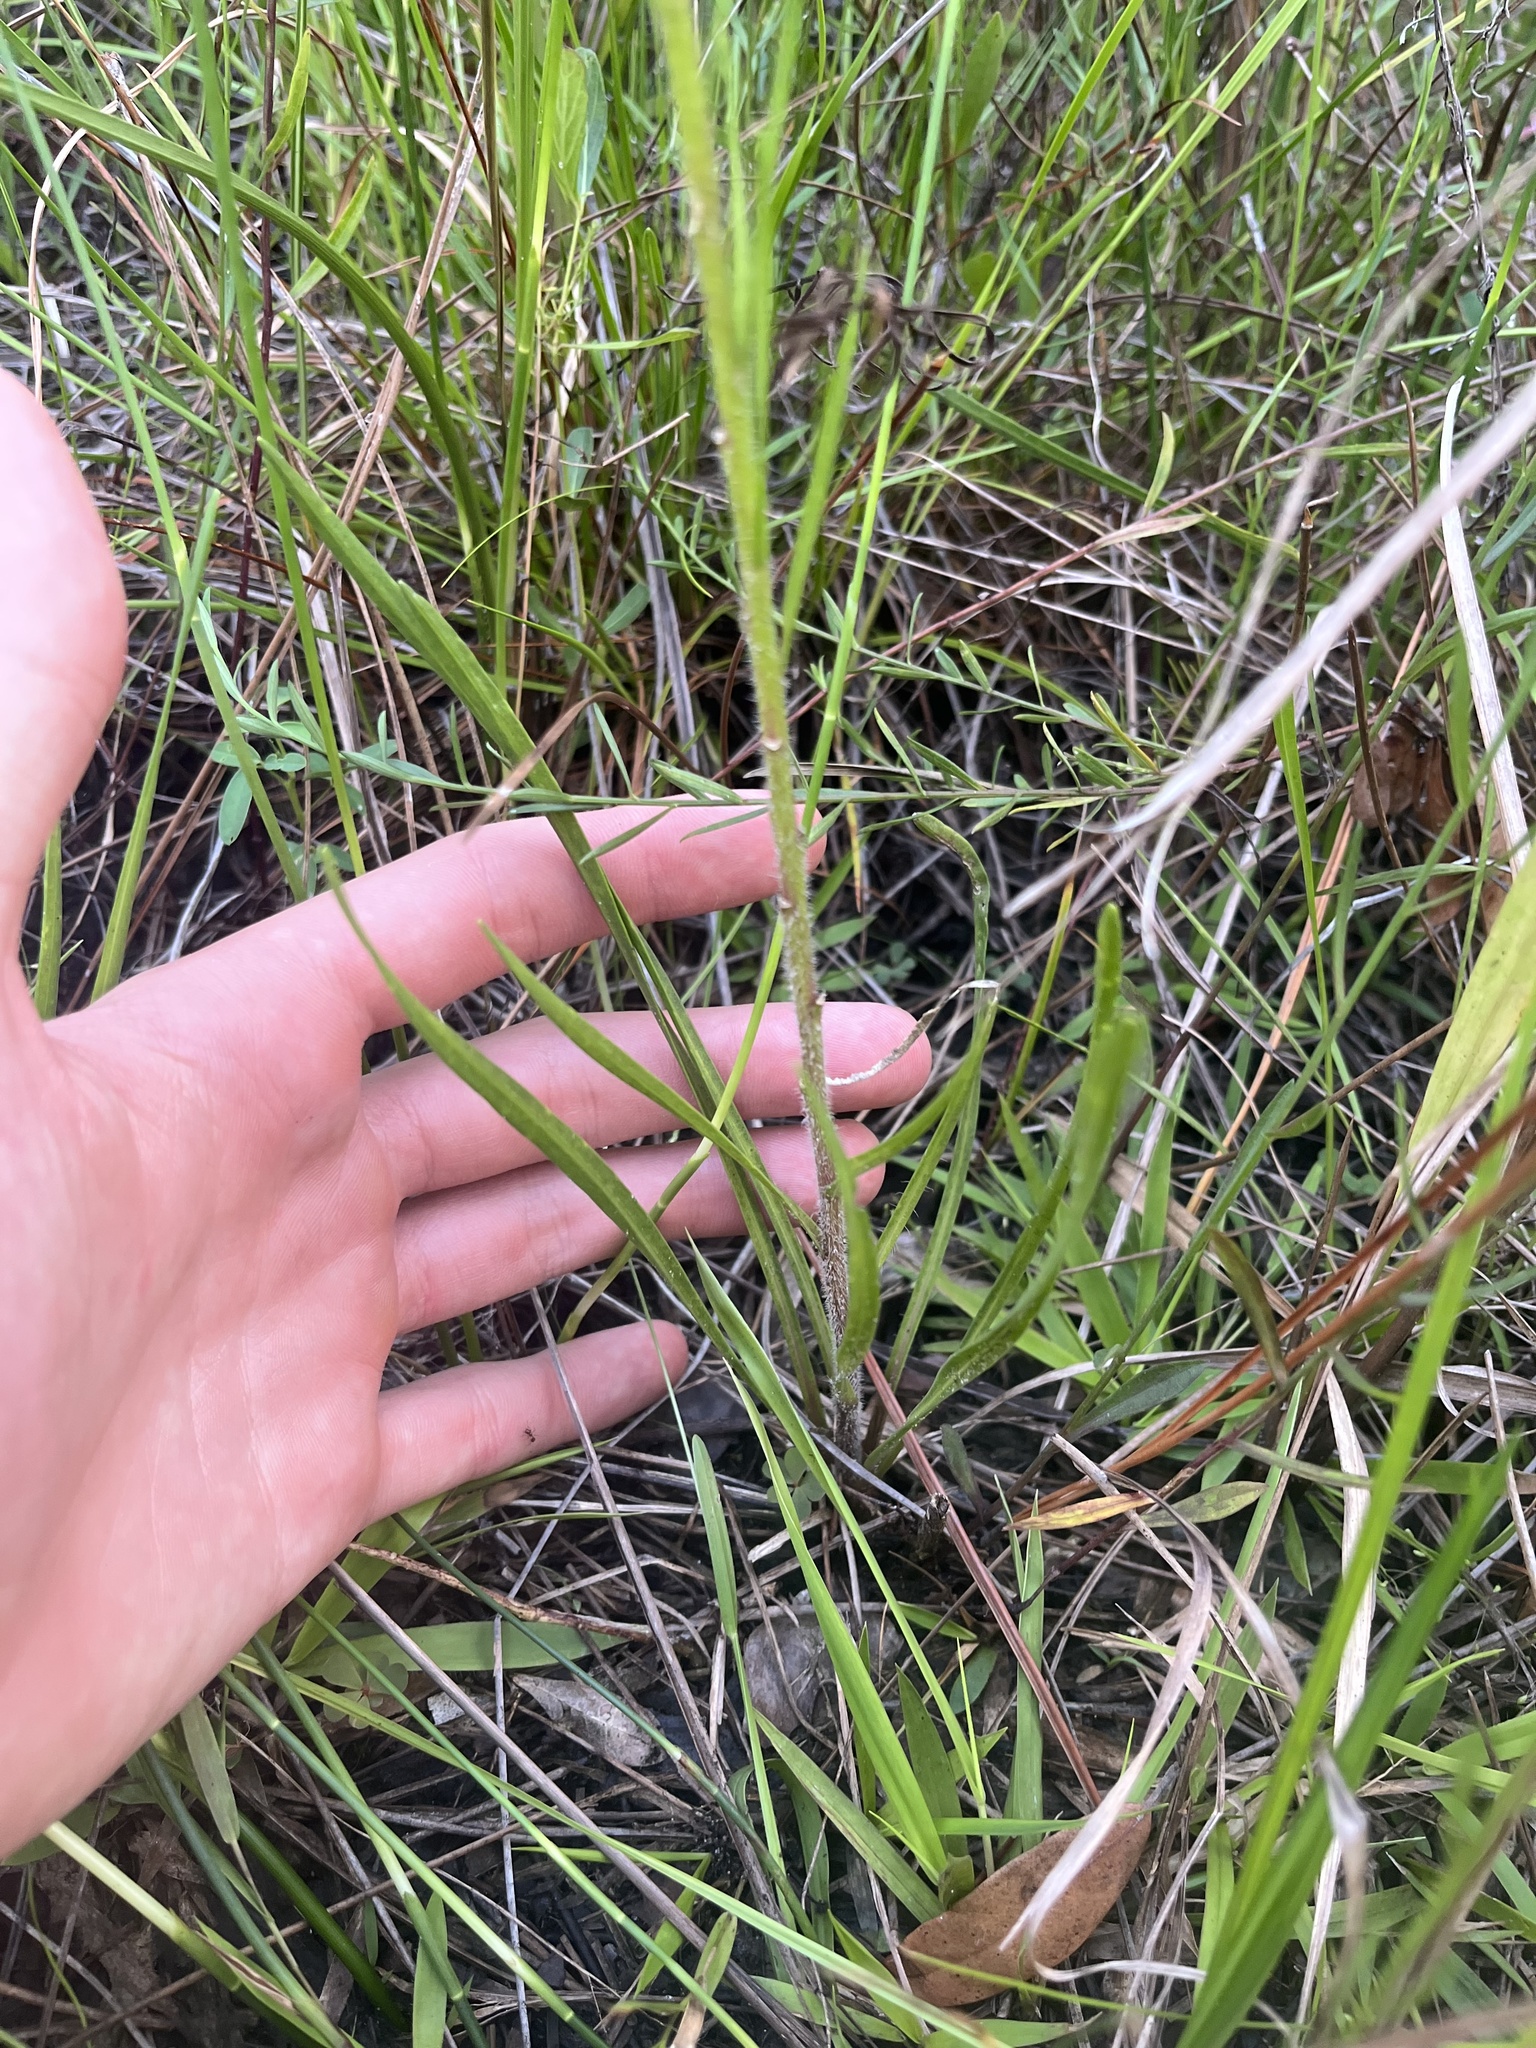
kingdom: Plantae
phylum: Tracheophyta
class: Magnoliopsida
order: Asterales
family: Asteraceae
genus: Liatris
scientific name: Liatris garberi
